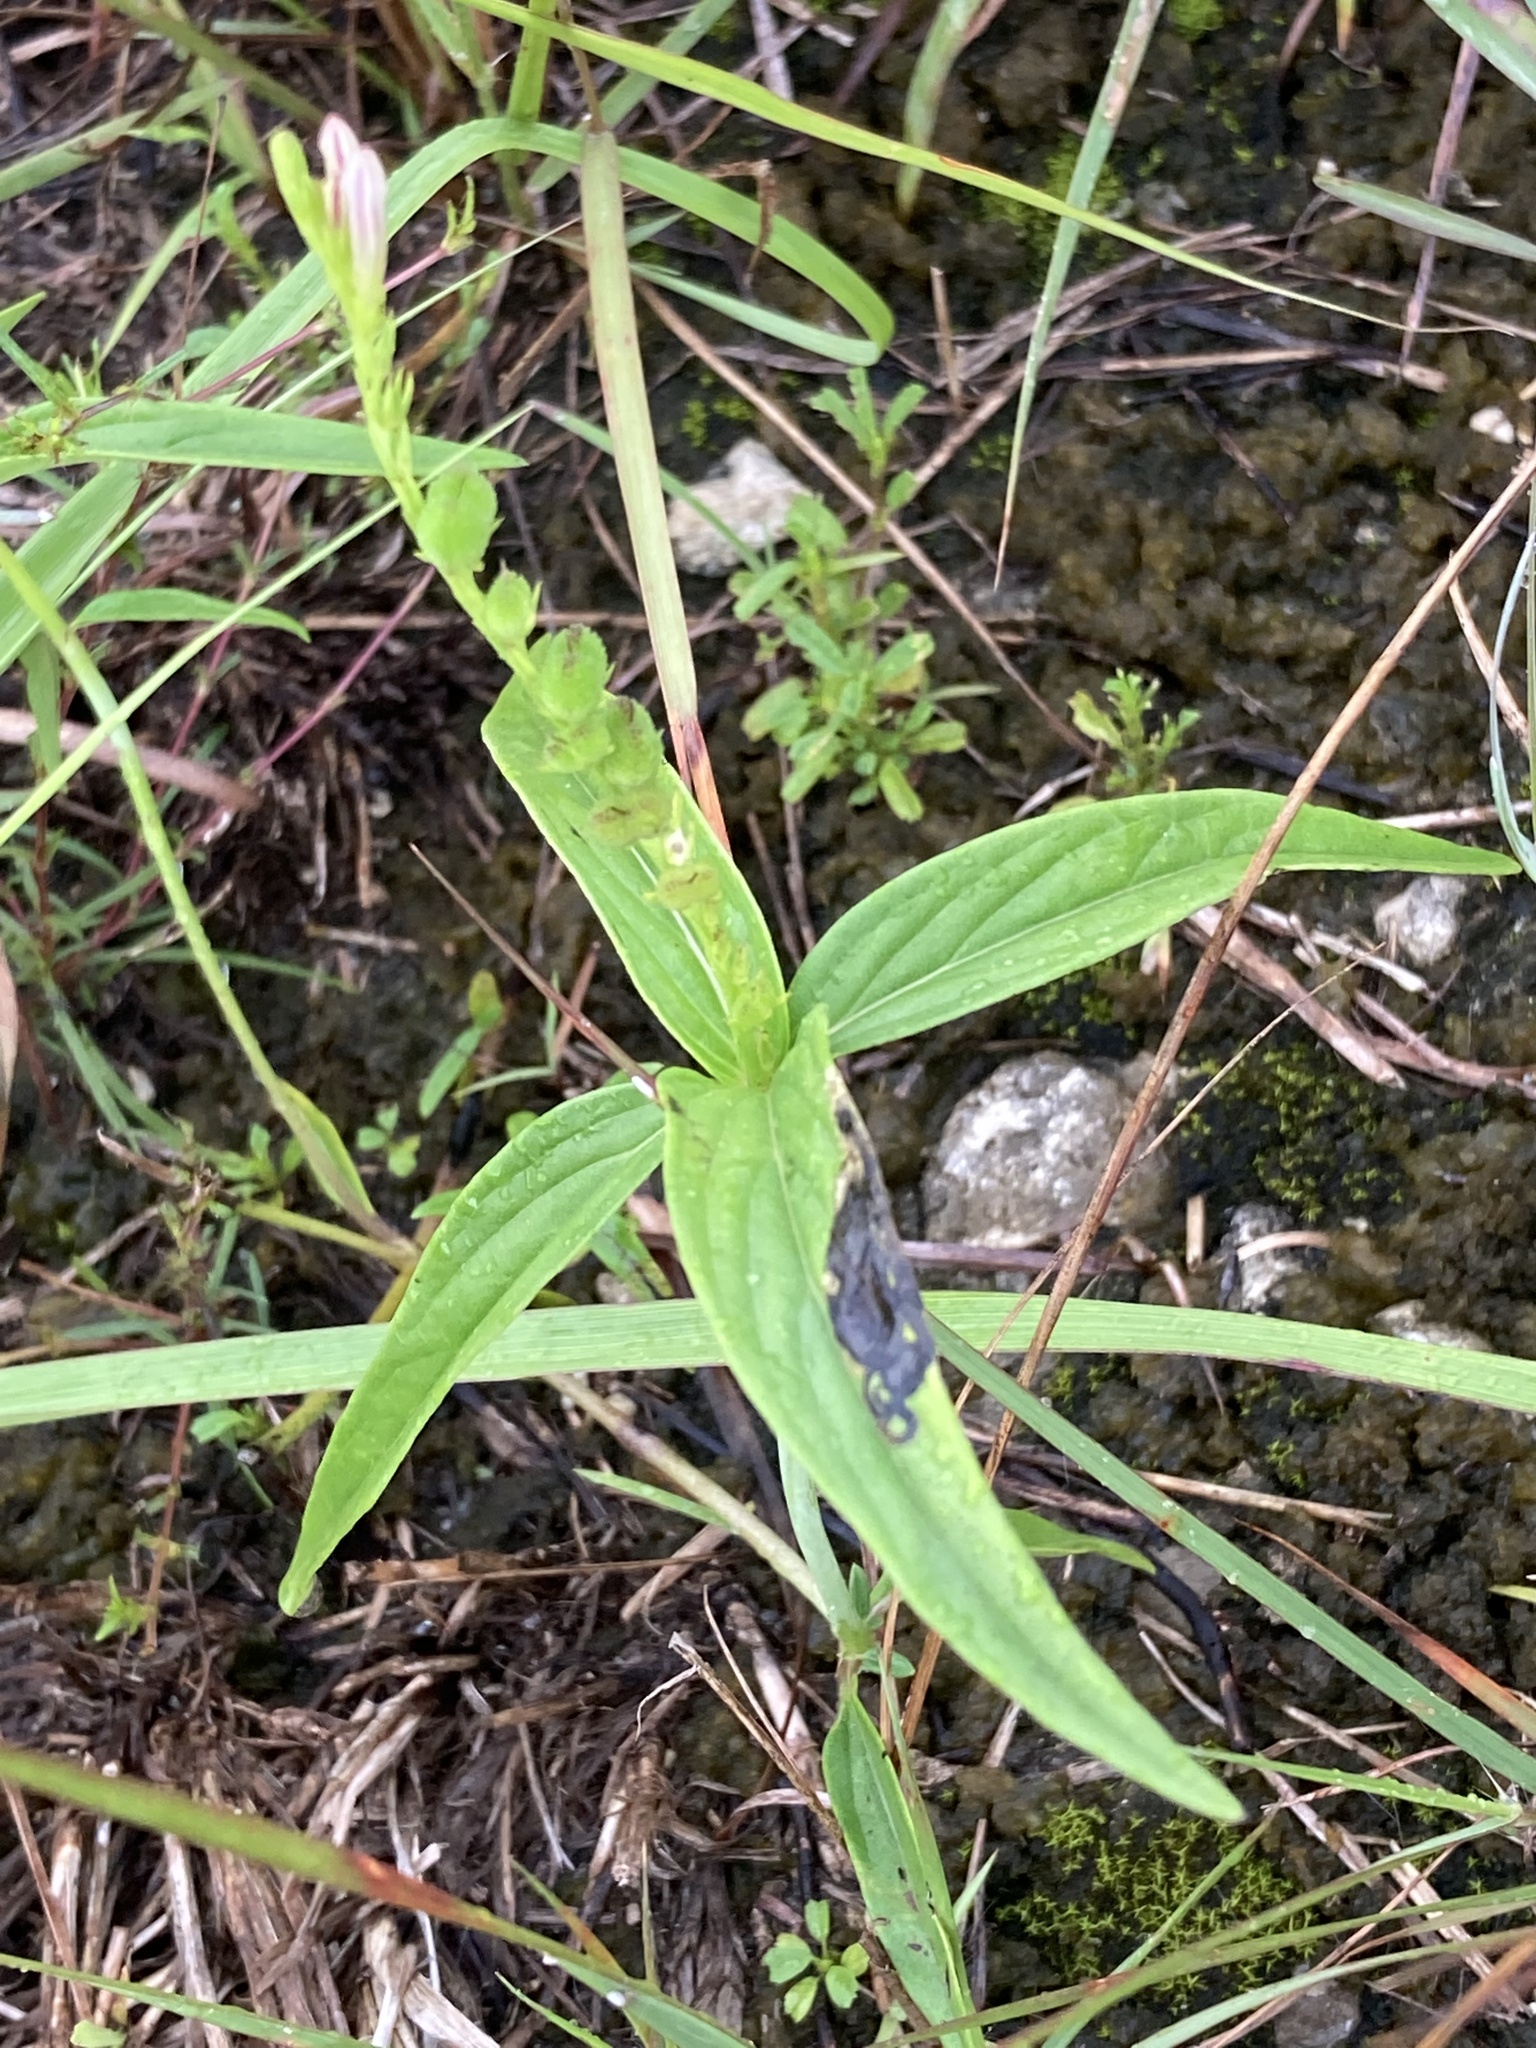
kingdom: Plantae
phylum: Tracheophyta
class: Magnoliopsida
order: Gentianales
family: Loganiaceae
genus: Spigelia
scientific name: Spigelia anthelmia
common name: West indian-pink
